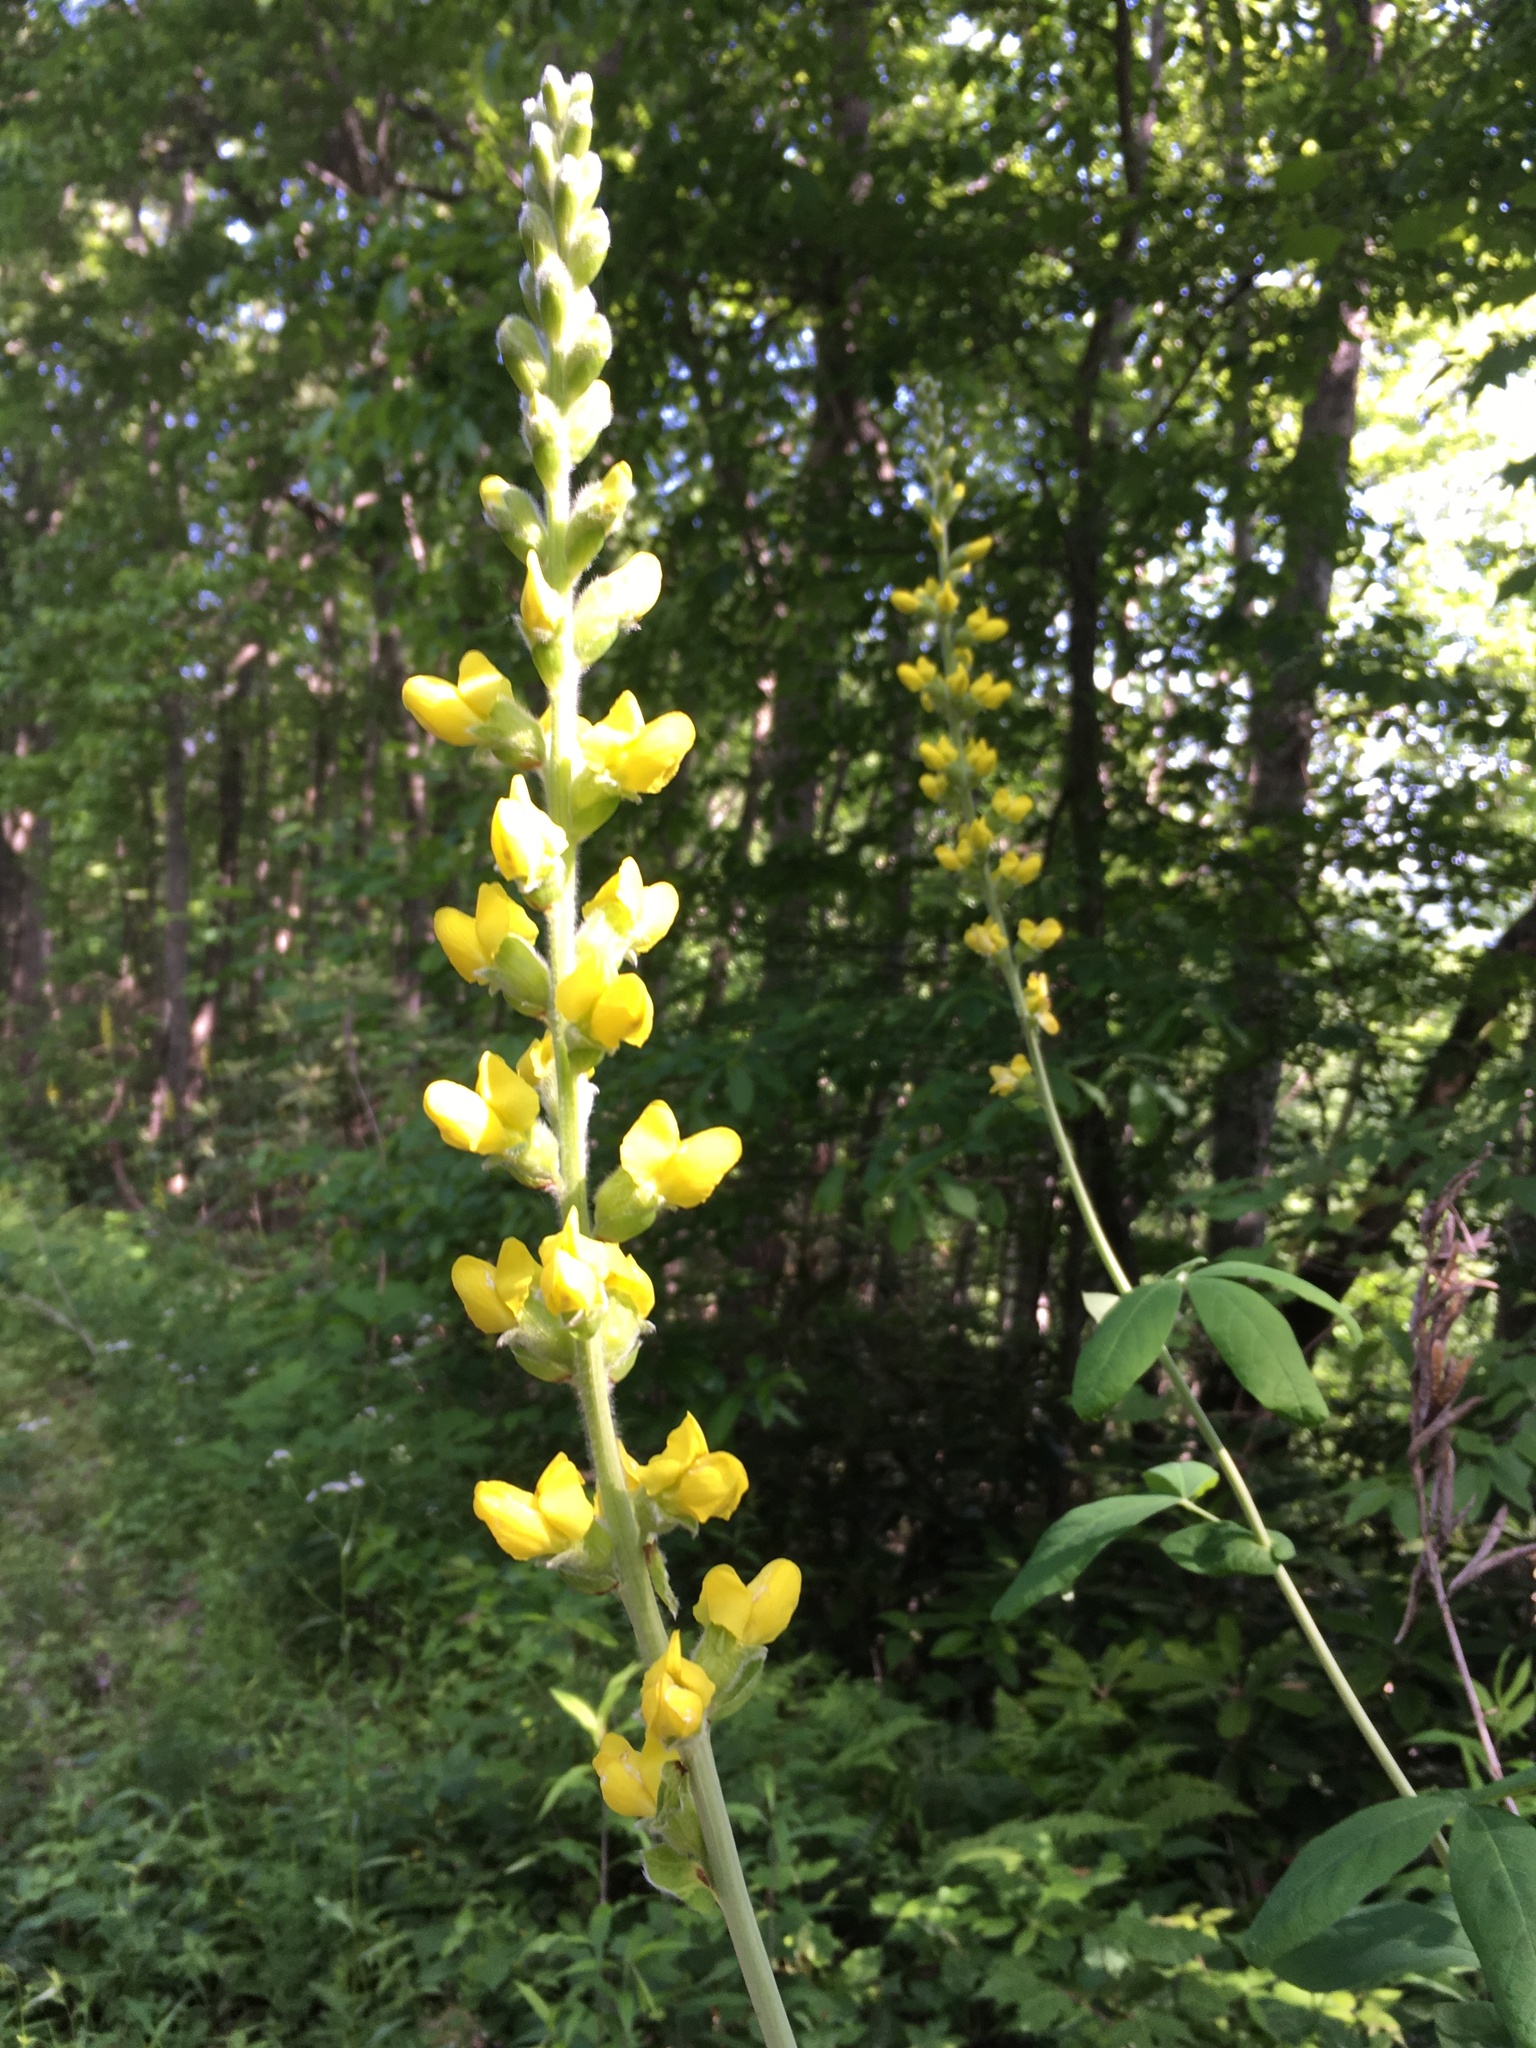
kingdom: Plantae
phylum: Tracheophyta
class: Magnoliopsida
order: Fabales
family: Fabaceae
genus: Thermopsis
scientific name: Thermopsis villosa
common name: Carolina-lupin
